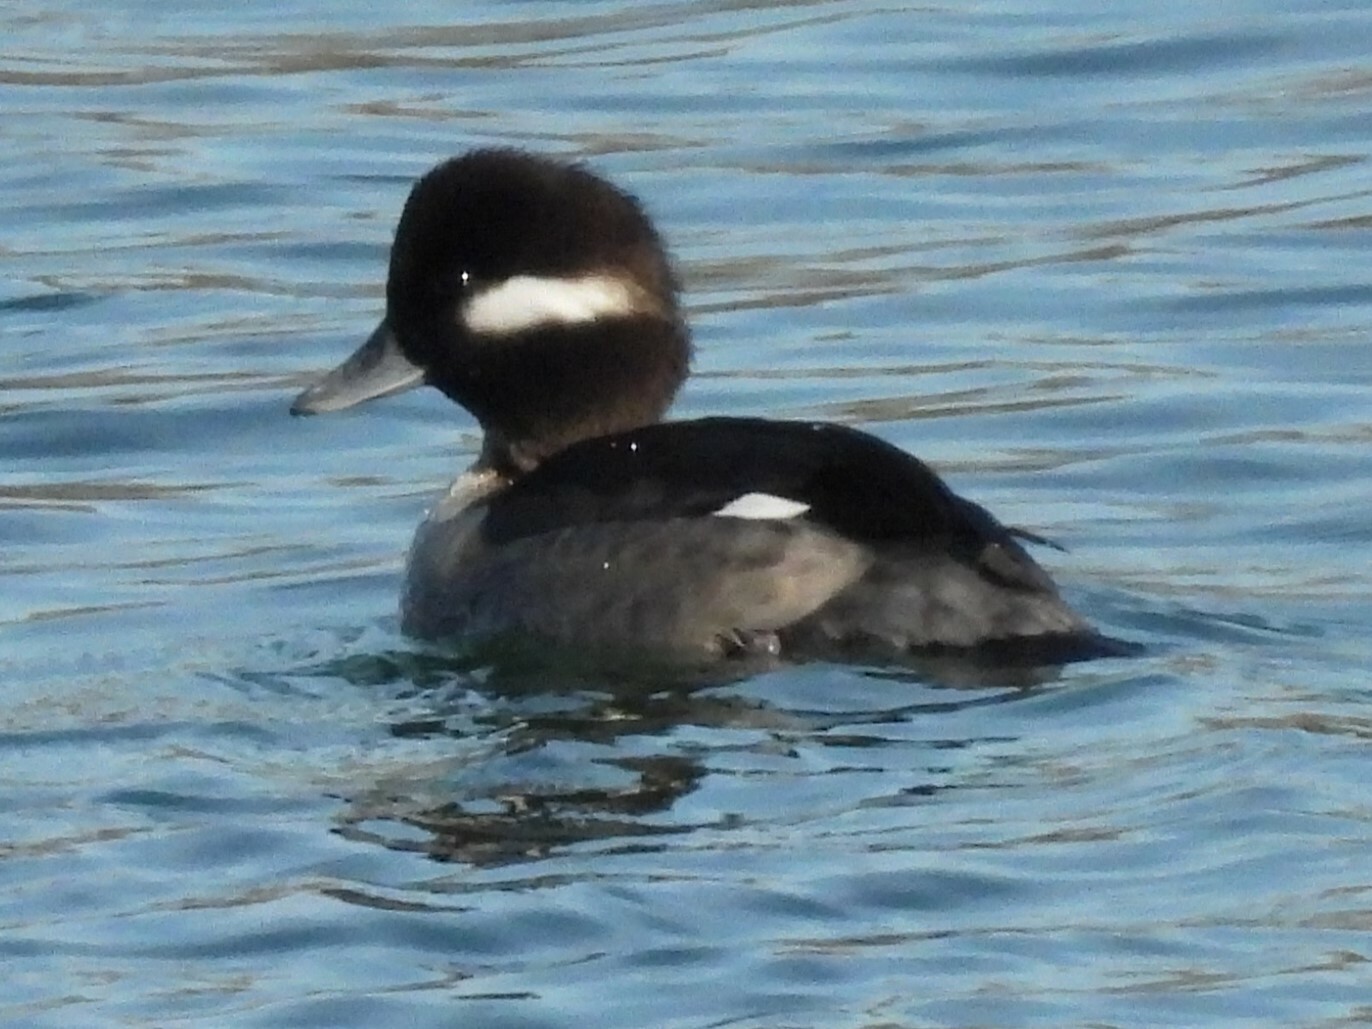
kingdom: Animalia
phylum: Chordata
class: Aves
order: Anseriformes
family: Anatidae
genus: Bucephala
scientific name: Bucephala albeola
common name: Bufflehead
